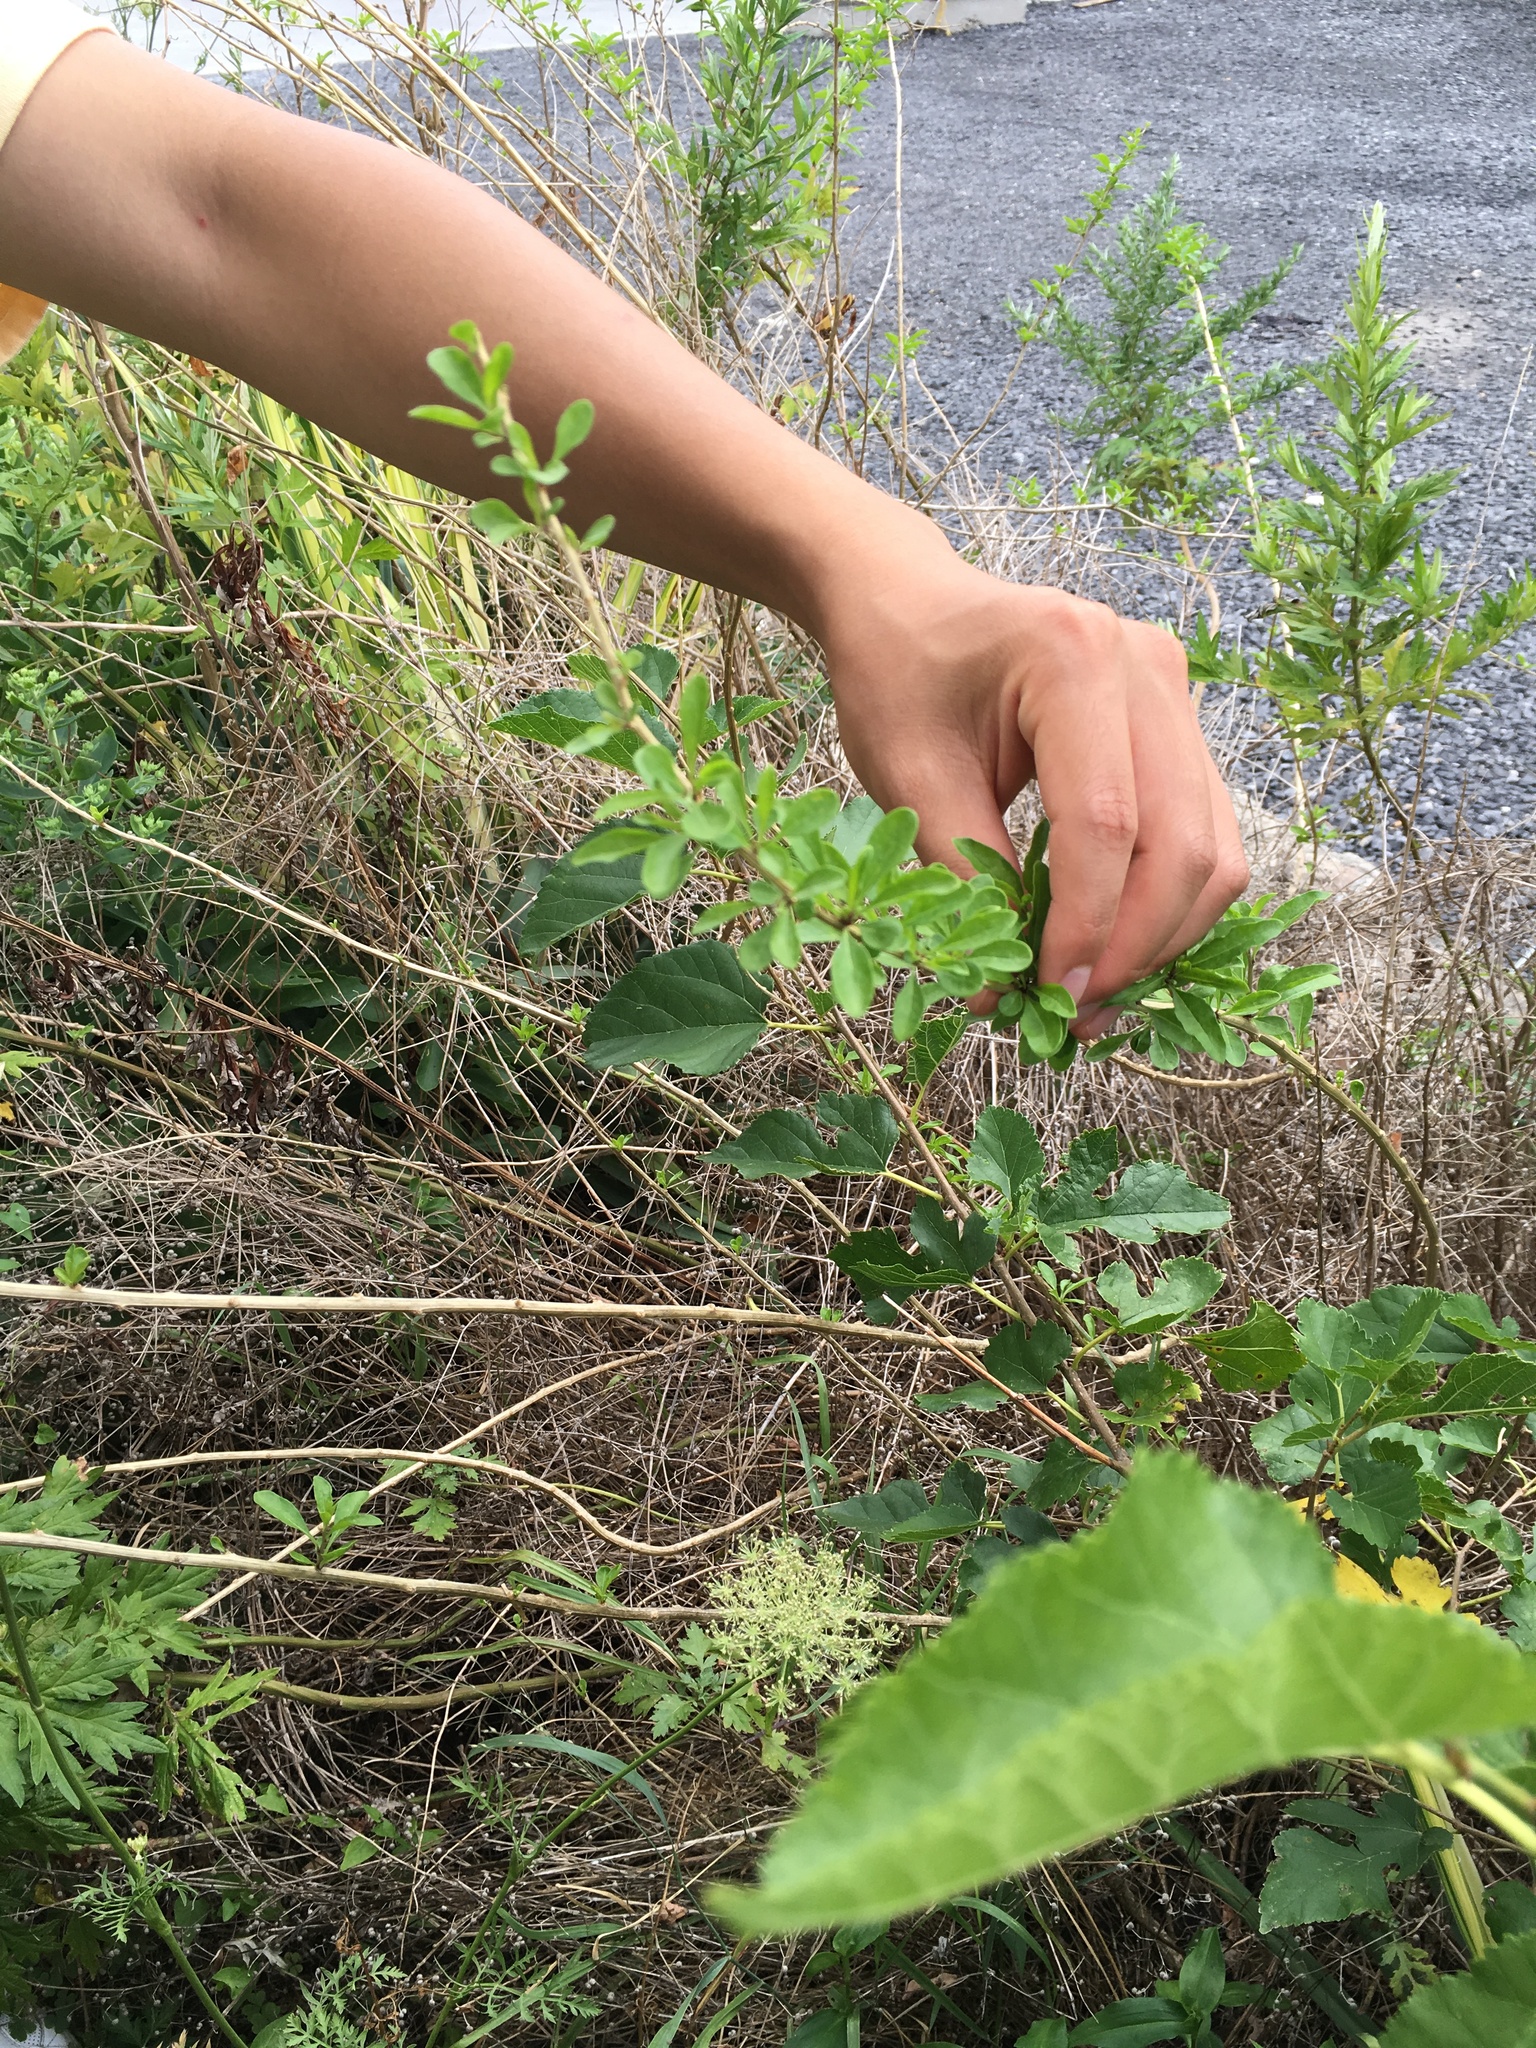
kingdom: Plantae
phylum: Tracheophyta
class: Magnoliopsida
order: Solanales
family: Solanaceae
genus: Lycium
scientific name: Lycium barbarum
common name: Duke of argyll's teaplant
